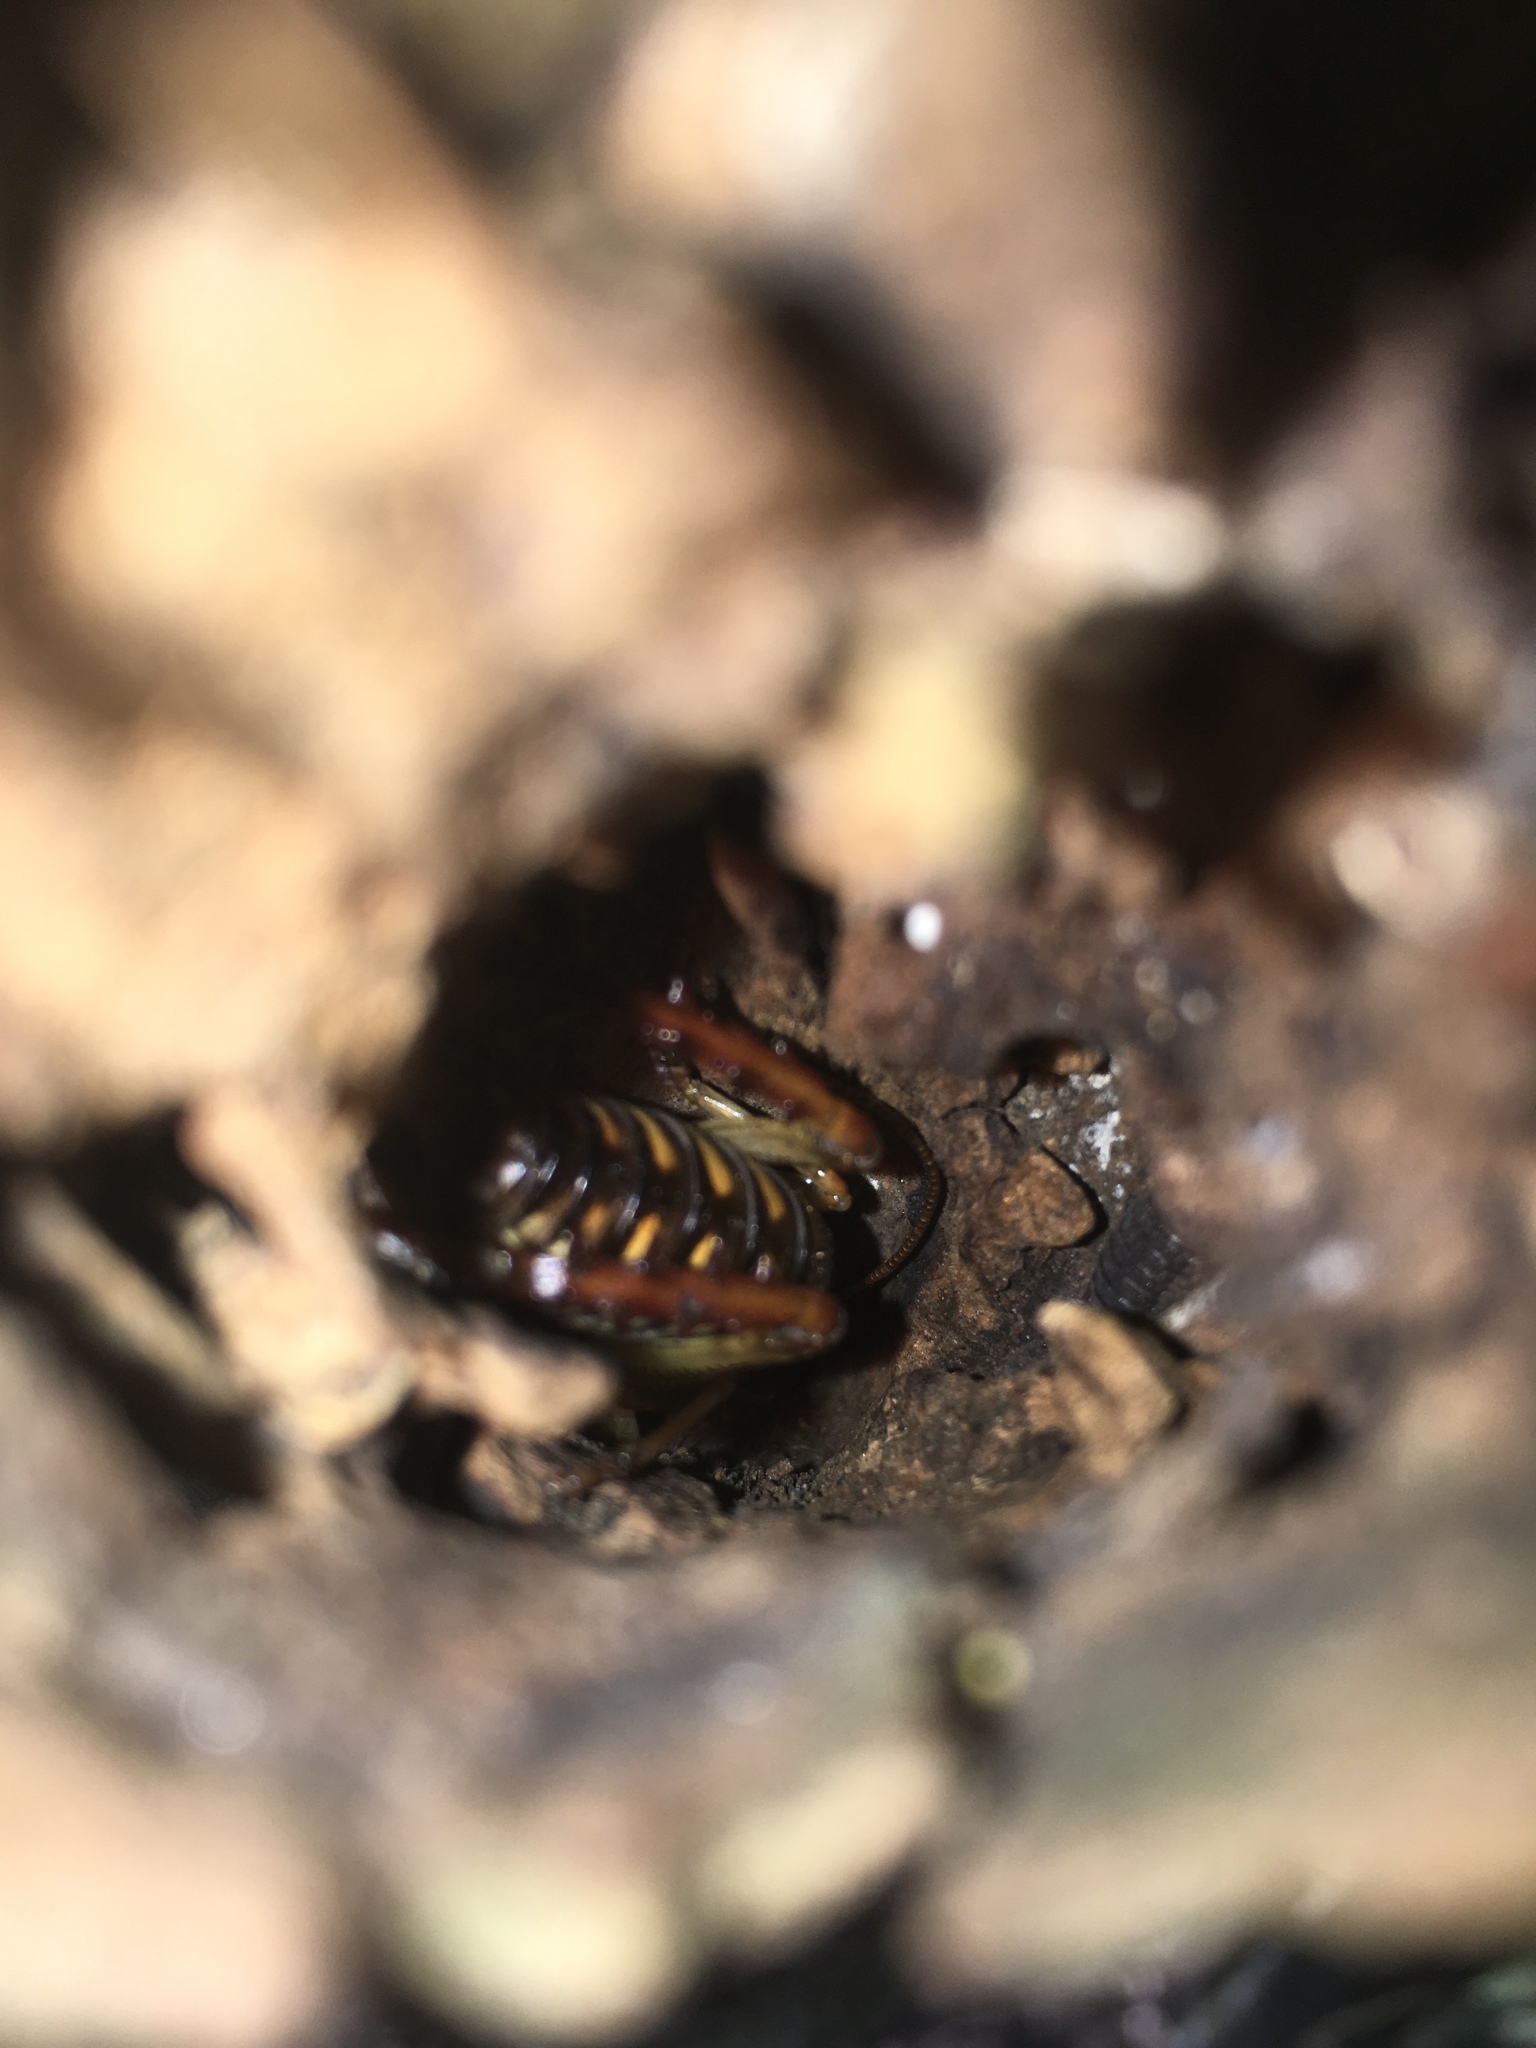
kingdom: Animalia
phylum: Arthropoda
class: Insecta
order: Orthoptera
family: Anostostomatidae
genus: Hemideina
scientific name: Hemideina crassidens
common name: Wellington tree weta
